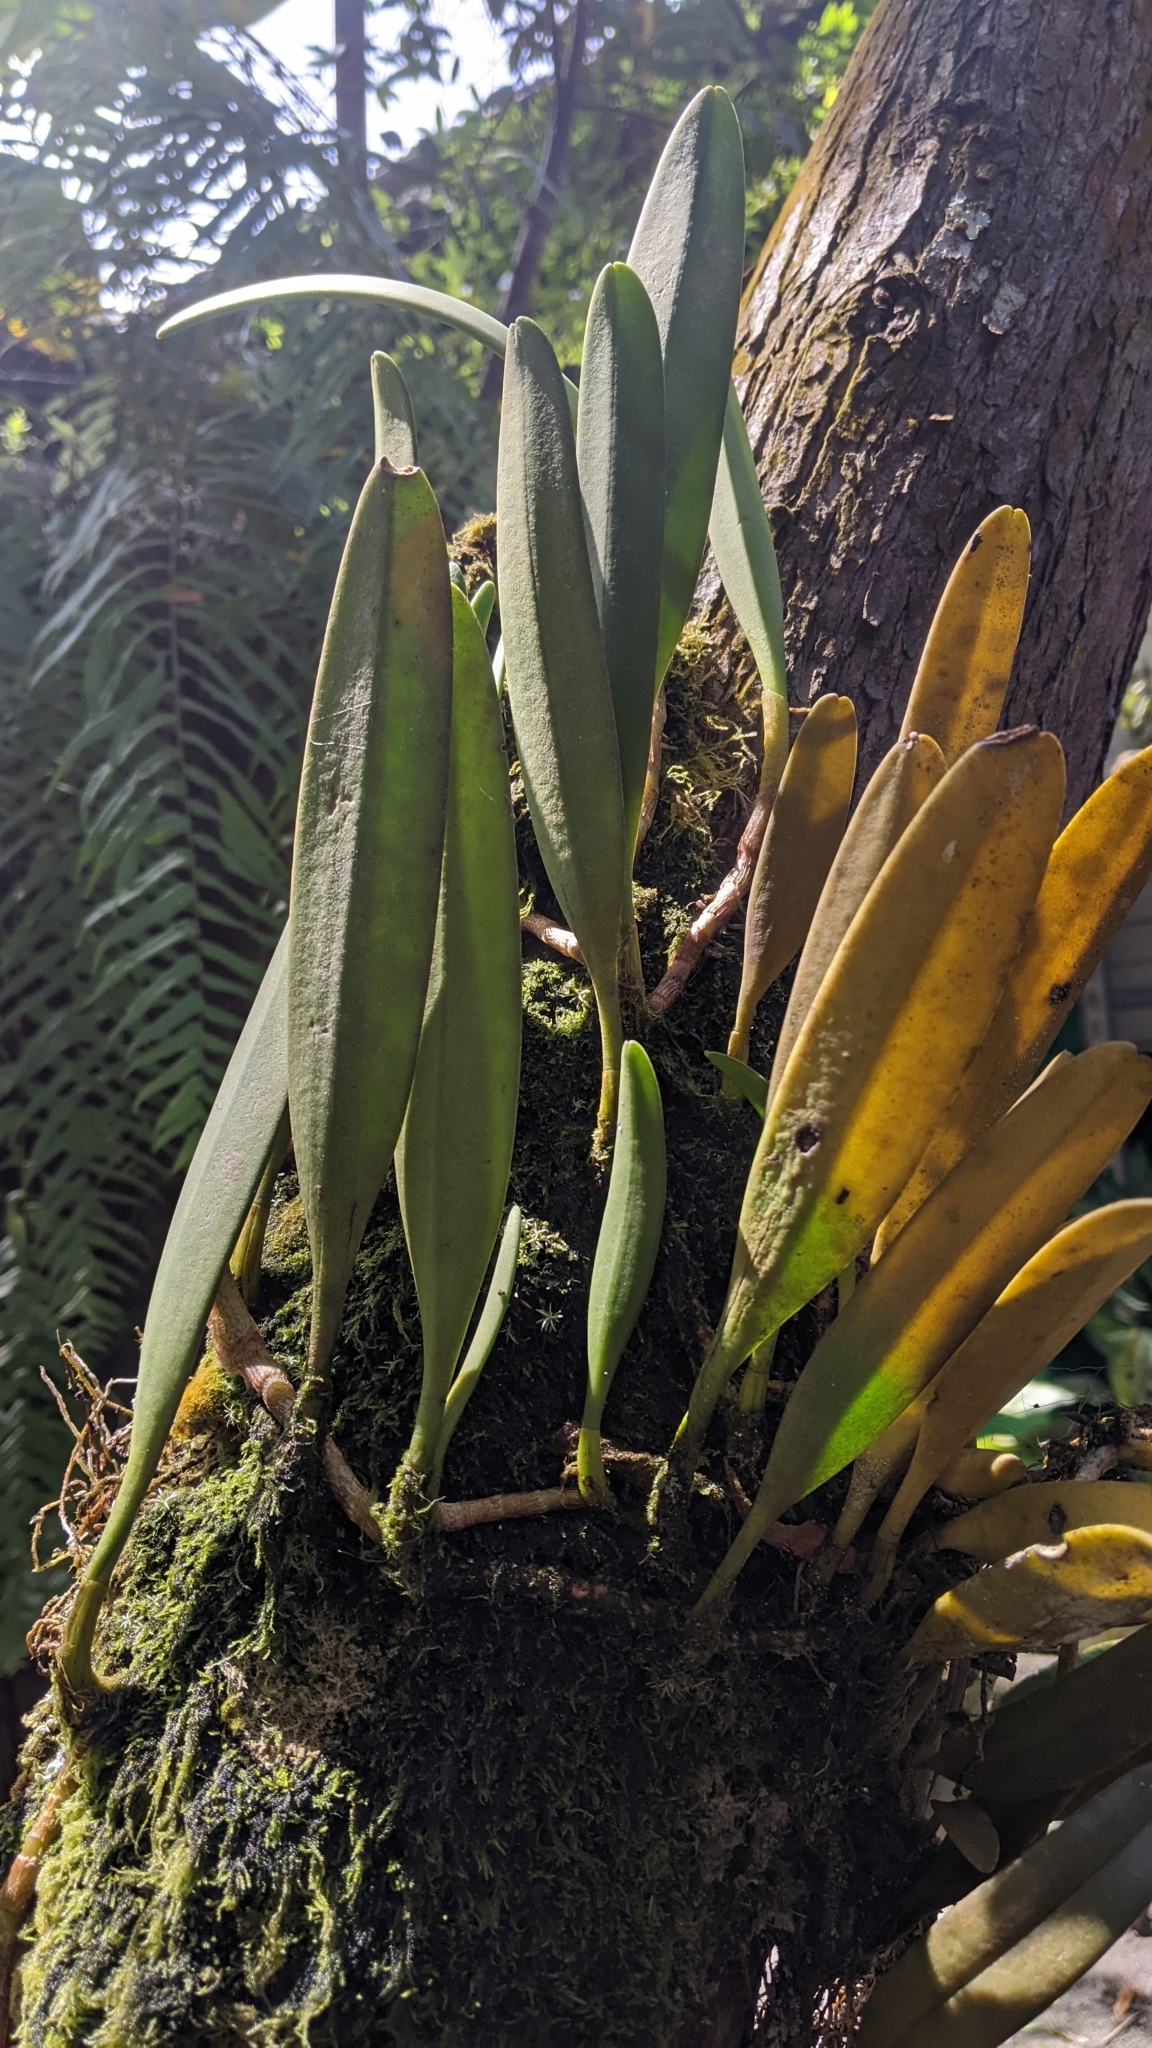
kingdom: Plantae
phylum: Tracheophyta
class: Liliopsida
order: Asparagales
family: Orchidaceae
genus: Bulbophyllum
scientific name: Bulbophyllum affine
